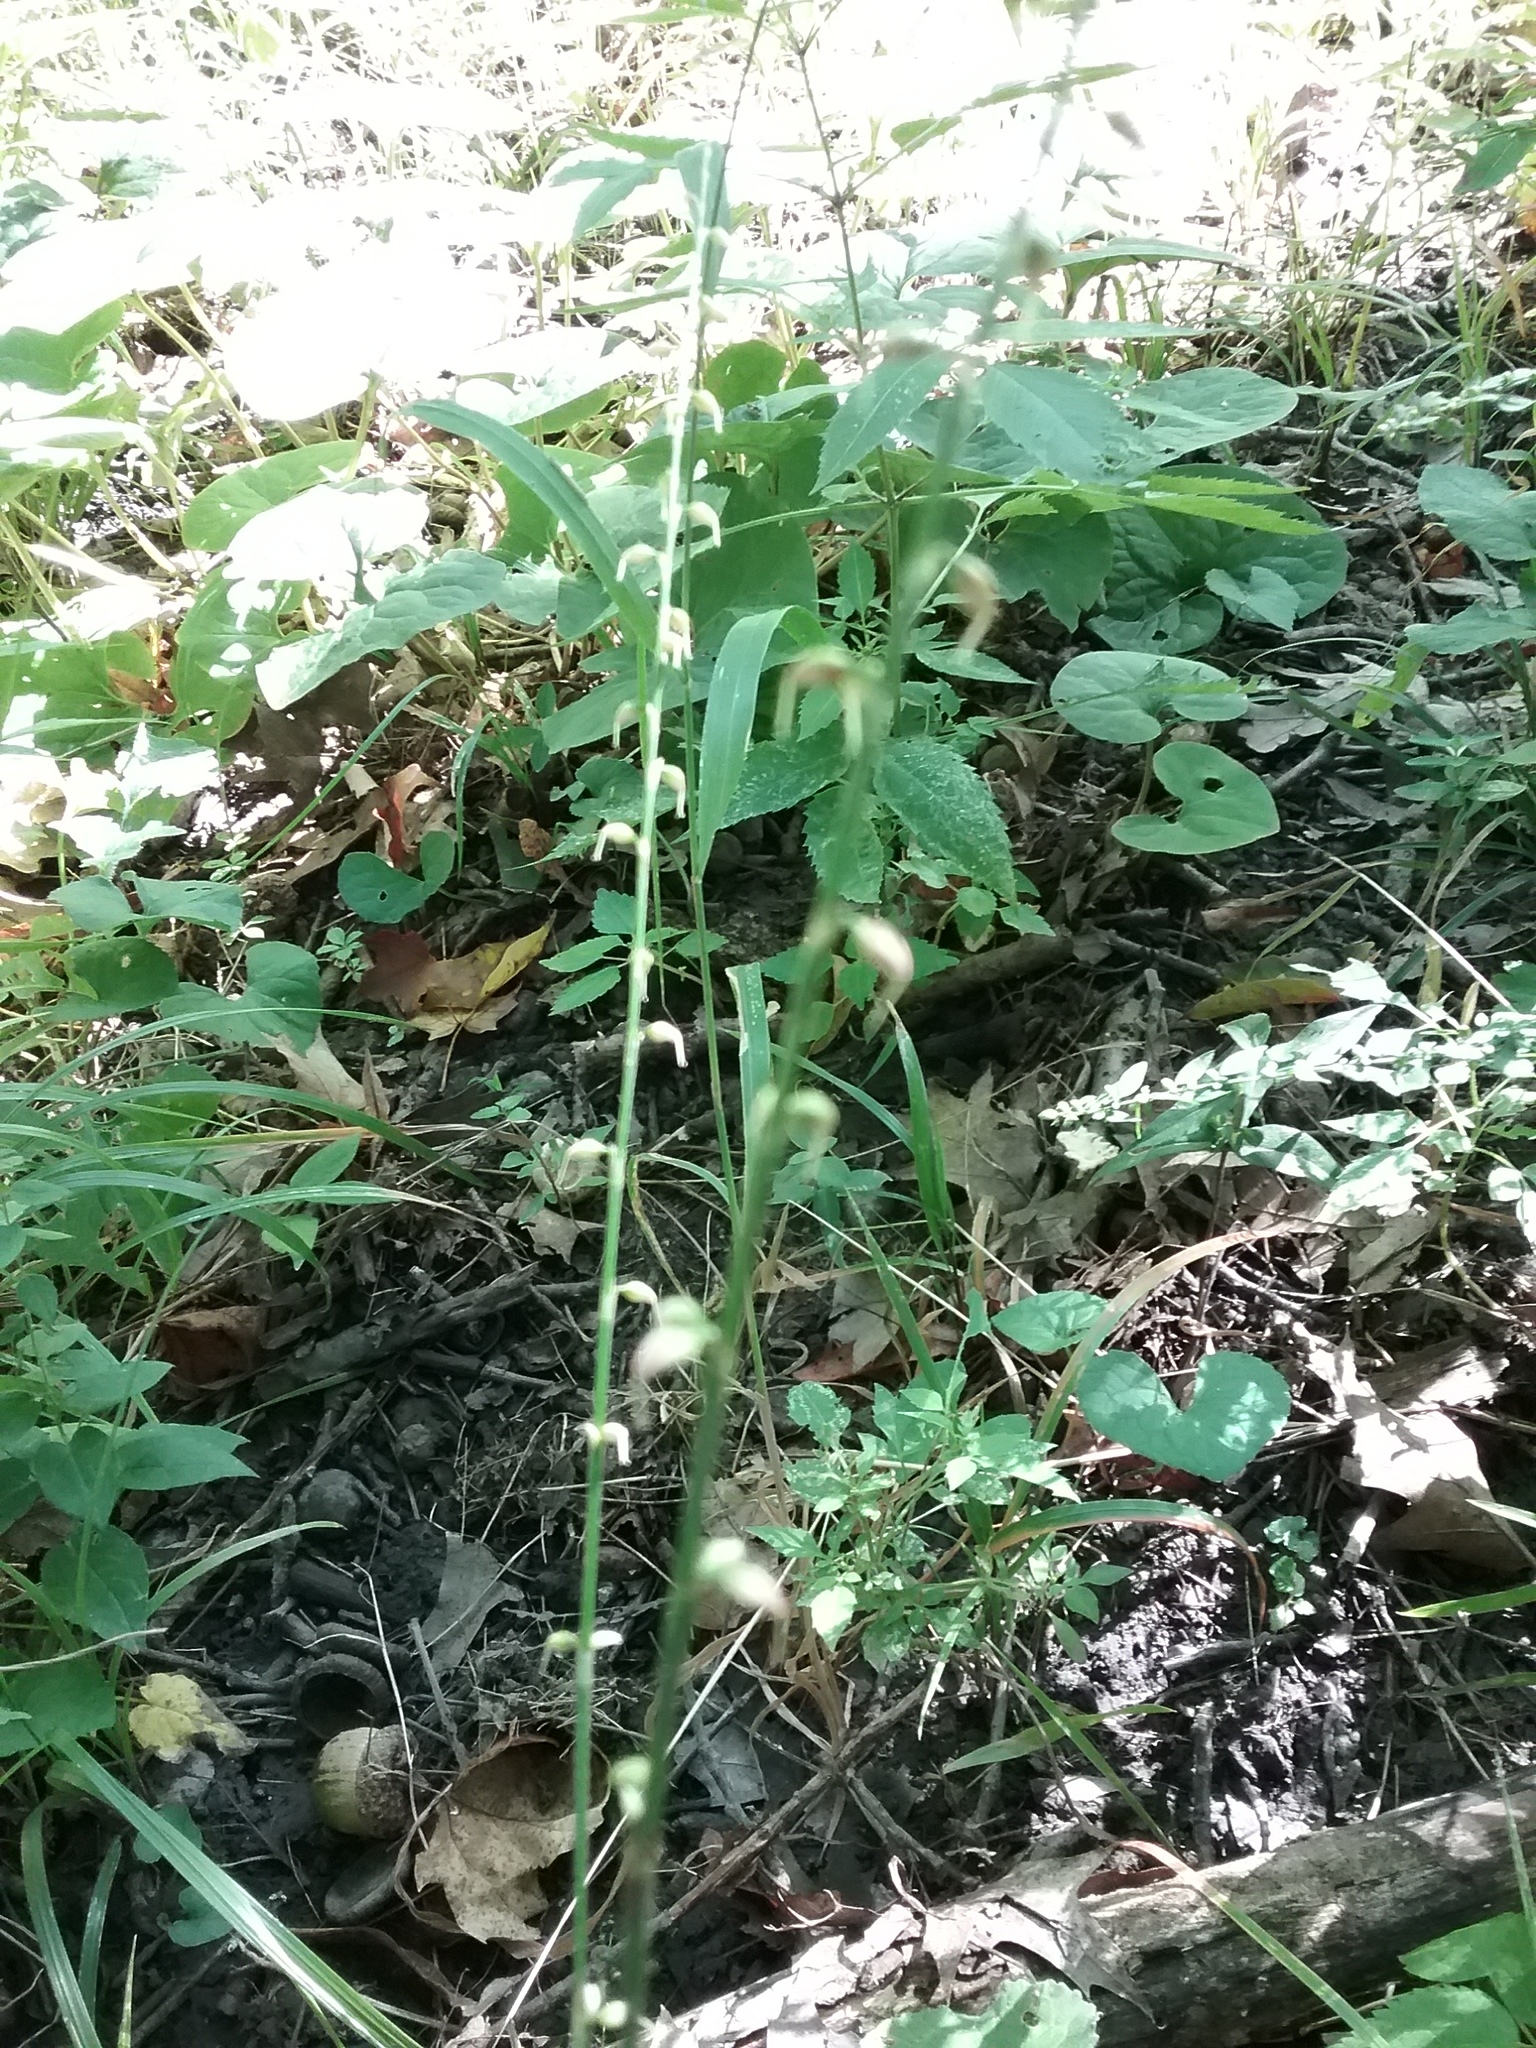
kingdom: Plantae
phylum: Tracheophyta
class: Magnoliopsida
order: Caryophyllales
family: Polygonaceae
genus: Persicaria
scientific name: Persicaria virginiana
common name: Jumpseed
